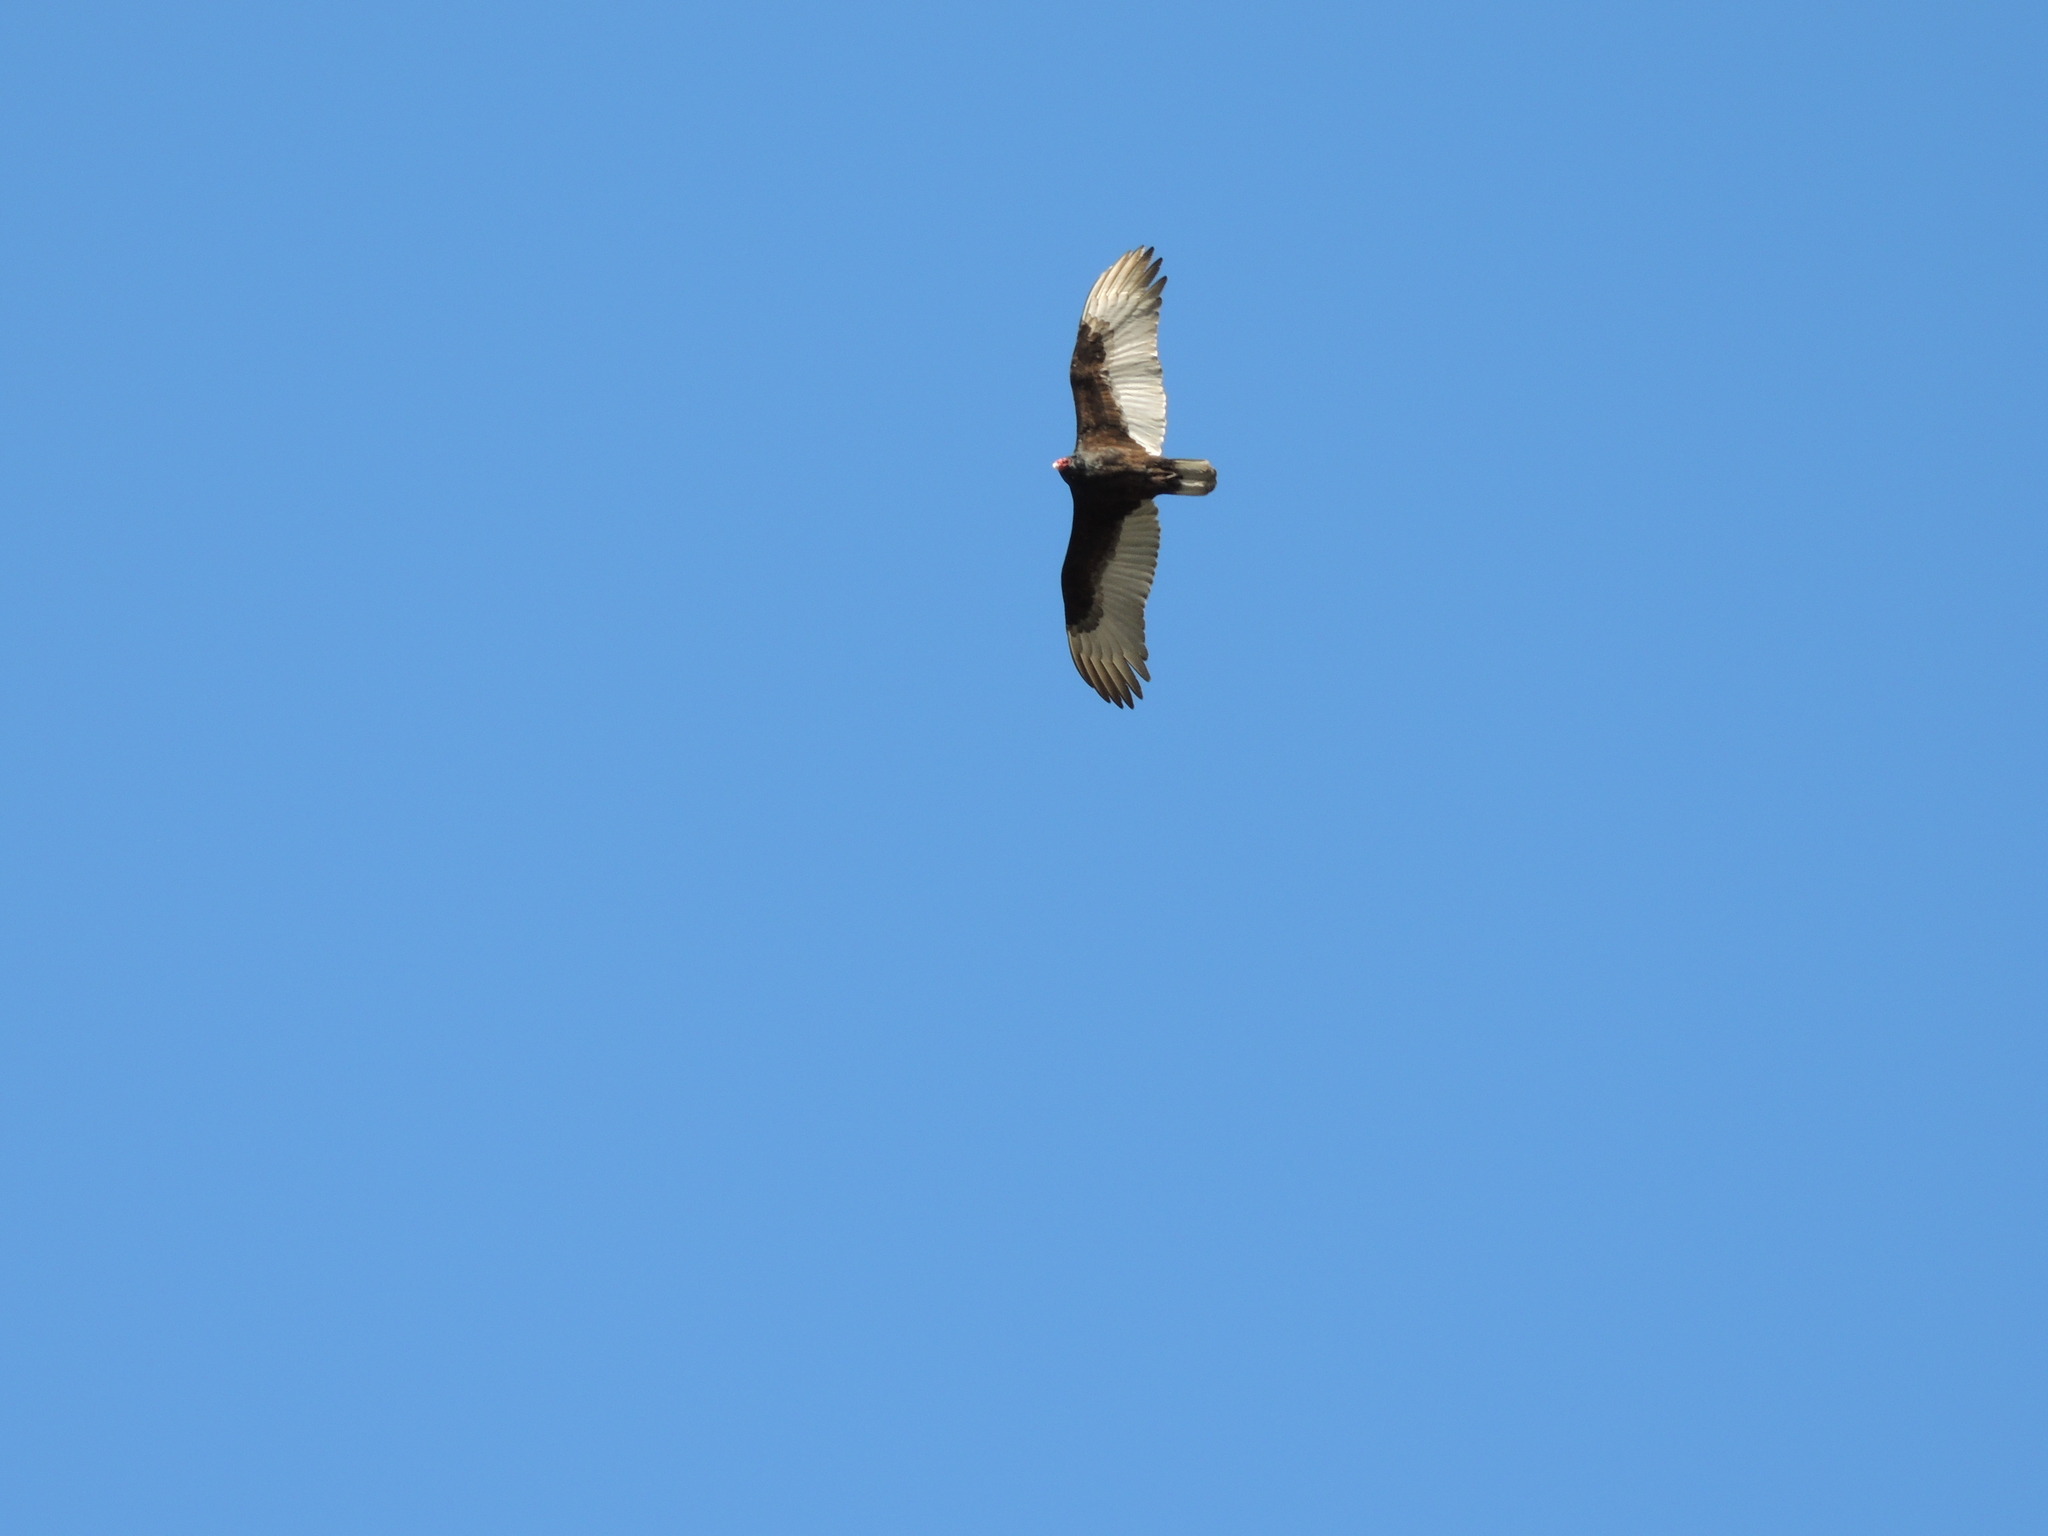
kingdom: Animalia
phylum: Chordata
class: Aves
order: Accipitriformes
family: Cathartidae
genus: Cathartes
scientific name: Cathartes aura
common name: Turkey vulture
